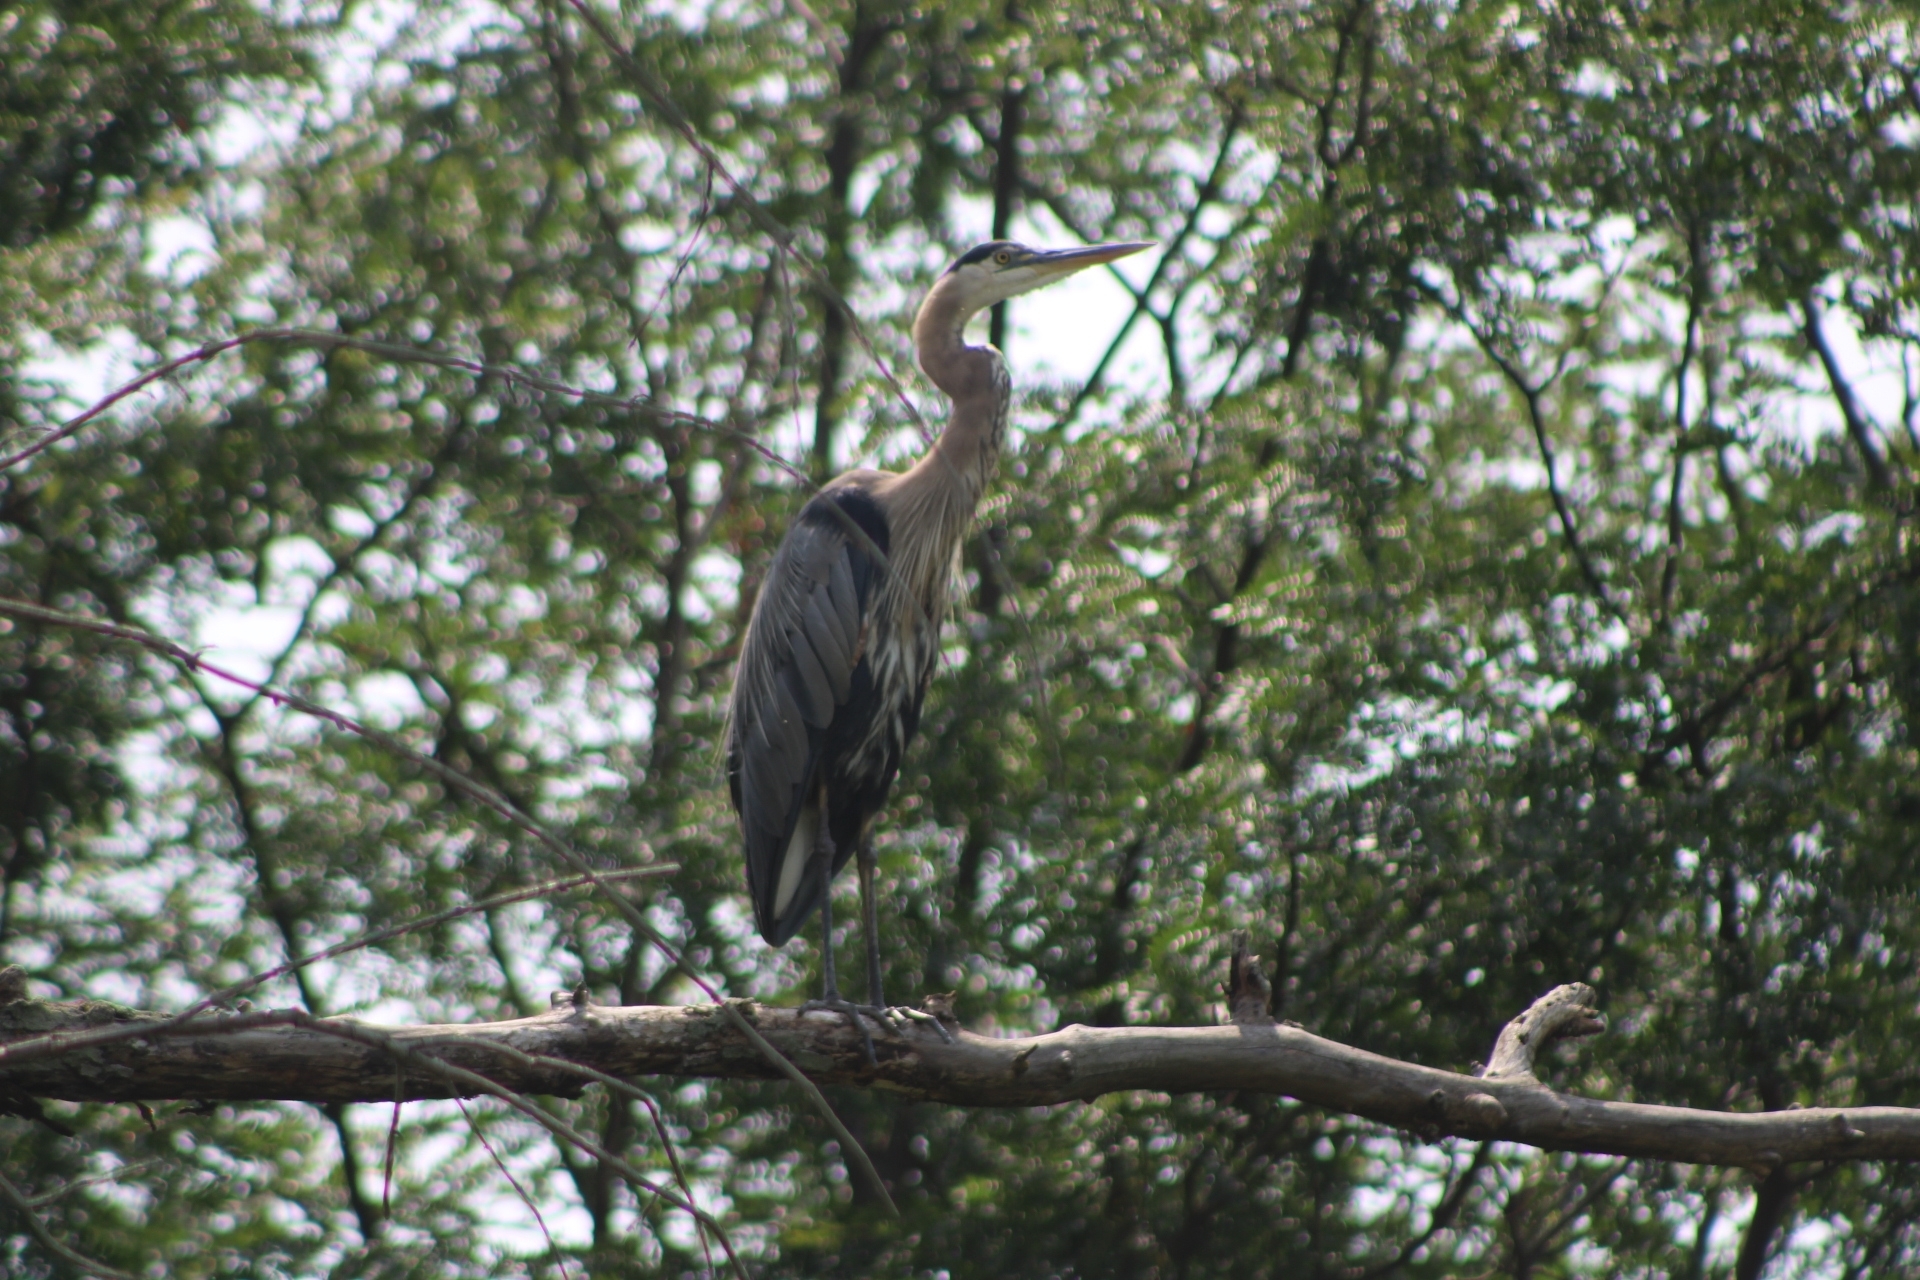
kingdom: Animalia
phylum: Chordata
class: Aves
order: Pelecaniformes
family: Ardeidae
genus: Ardea
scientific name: Ardea herodias
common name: Great blue heron
